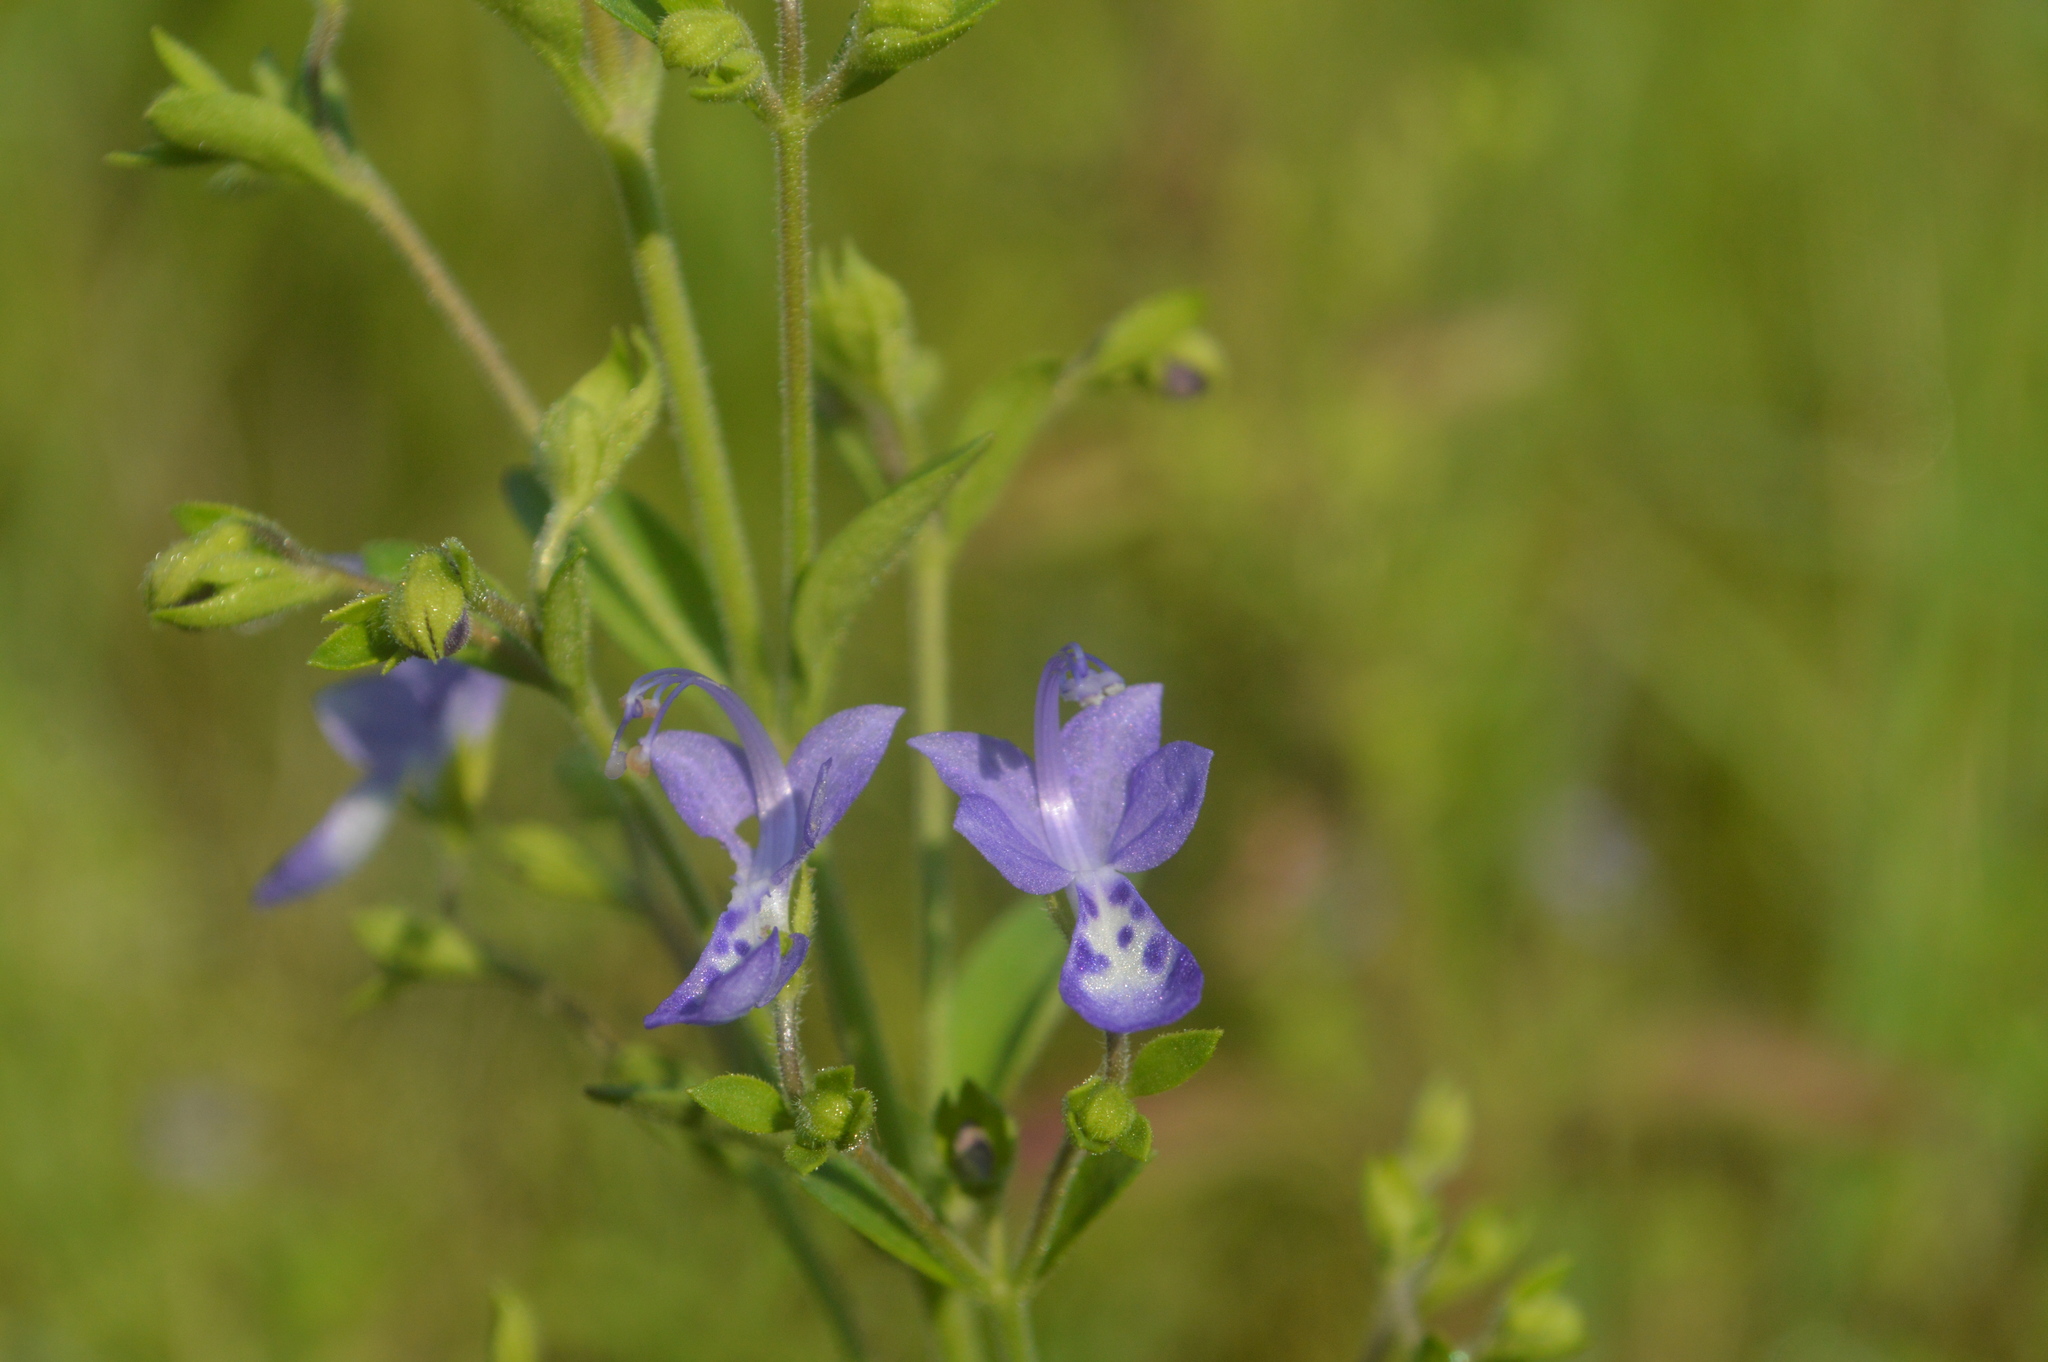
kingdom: Plantae
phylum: Tracheophyta
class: Magnoliopsida
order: Lamiales
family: Lamiaceae
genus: Trichostema
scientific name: Trichostema dichotomum
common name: Bastard pennyroyal
